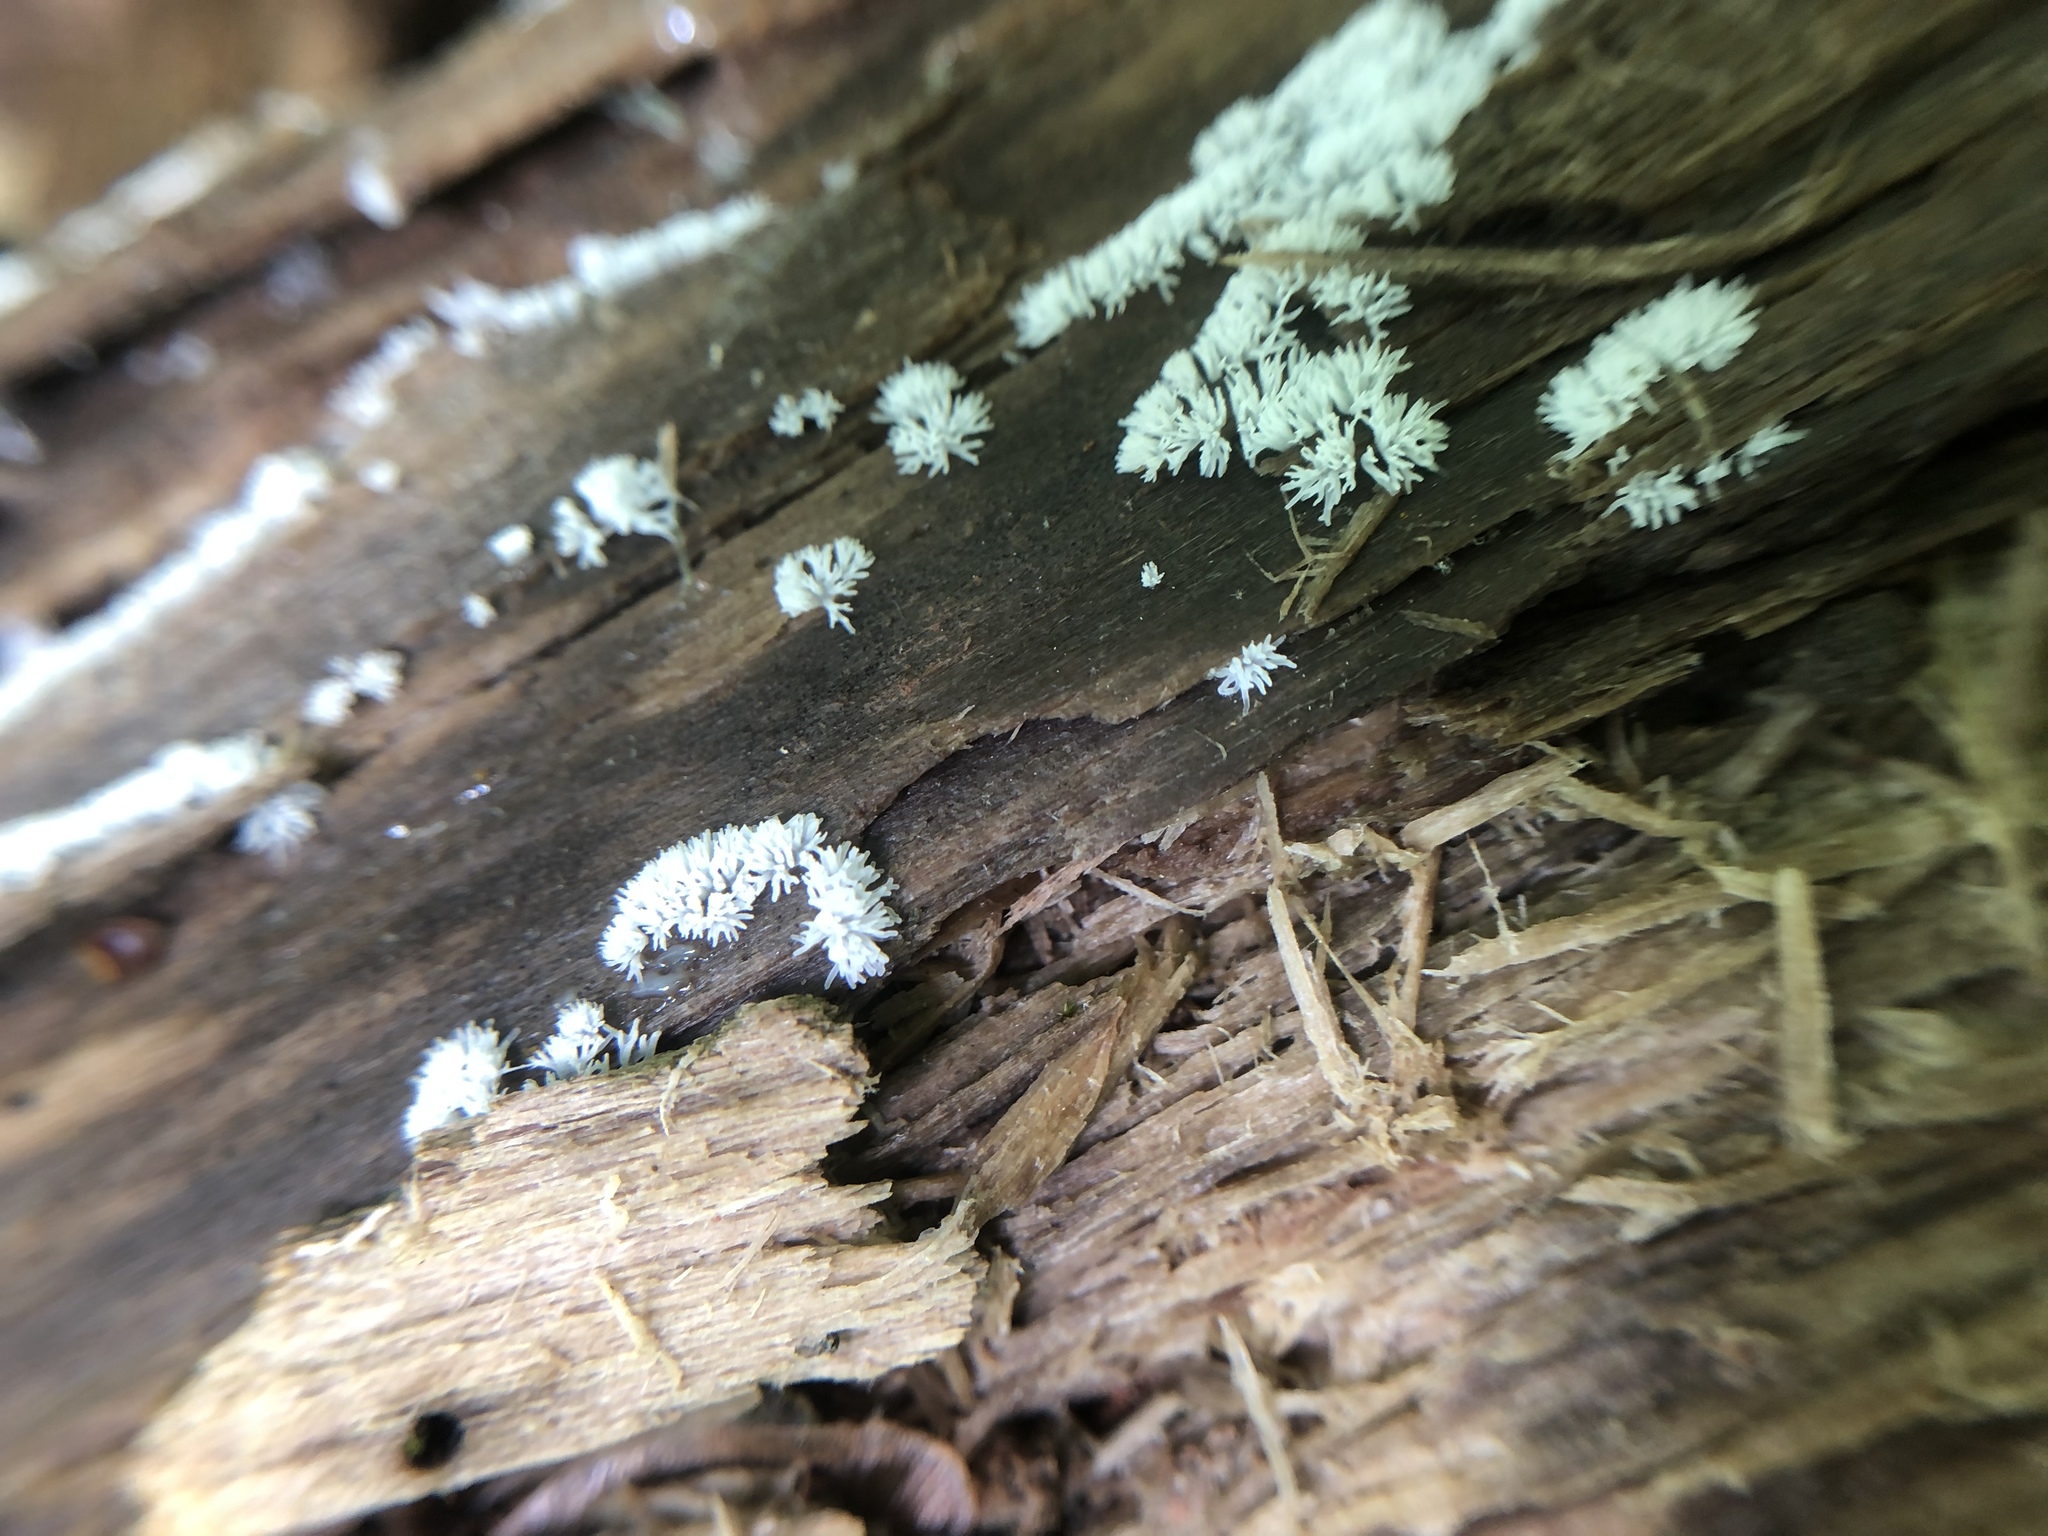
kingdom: Protozoa
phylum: Mycetozoa
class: Protosteliomycetes
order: Ceratiomyxales
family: Ceratiomyxaceae
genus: Ceratiomyxa
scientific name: Ceratiomyxa fruticulosa
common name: Honeycomb coral slime mold
